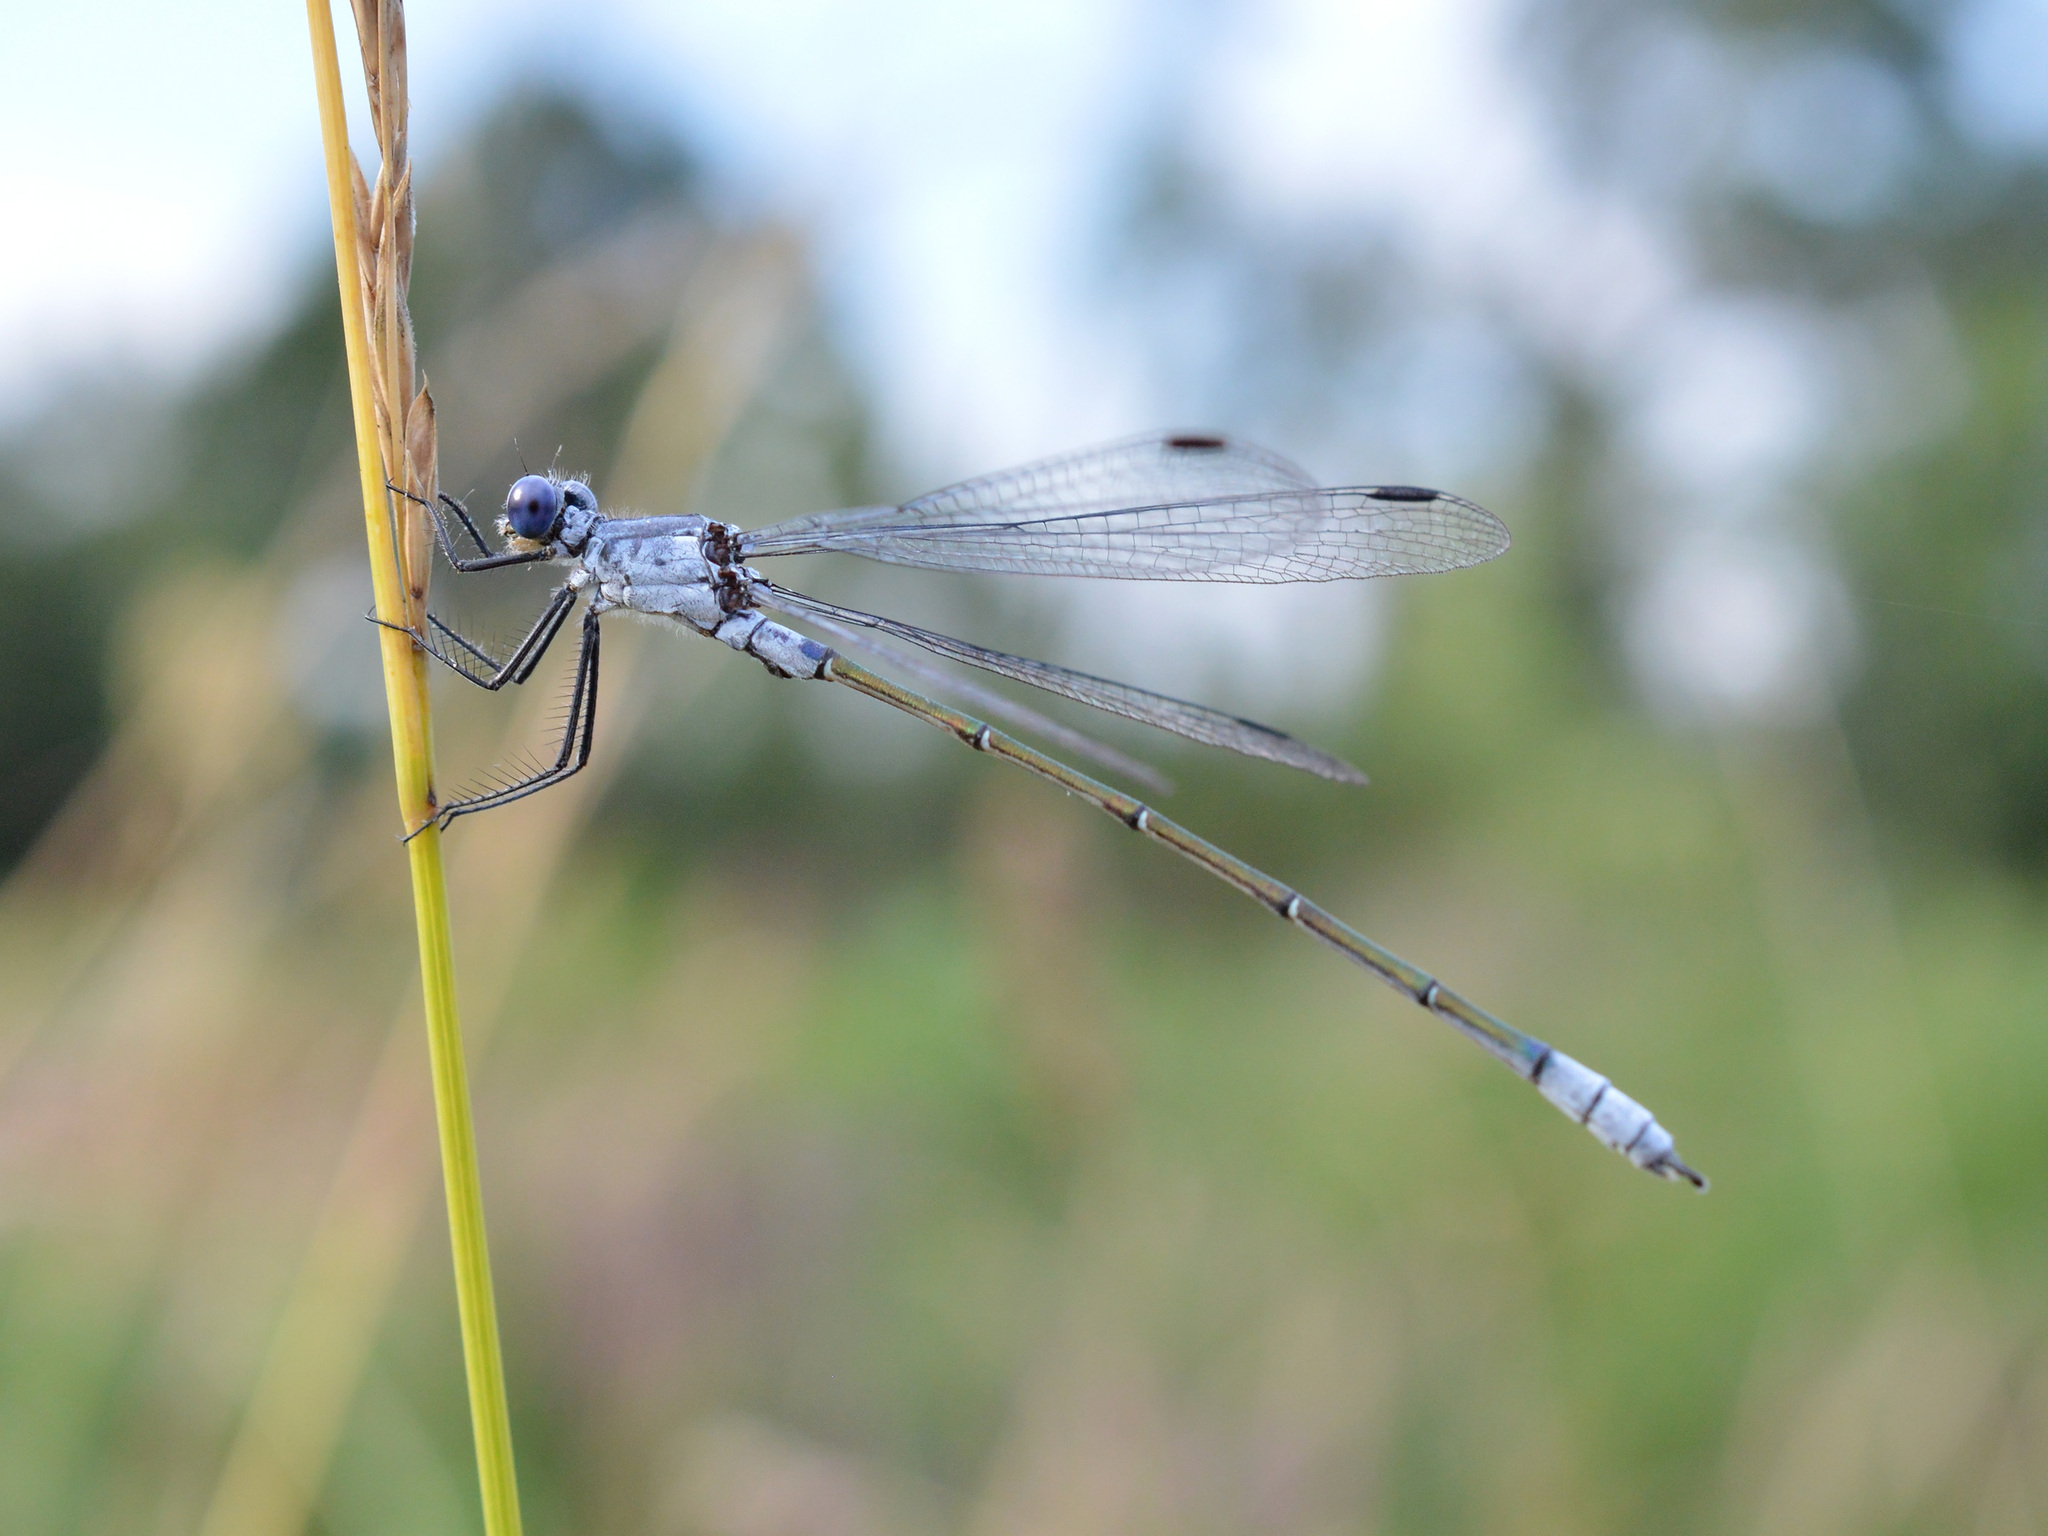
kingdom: Animalia
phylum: Arthropoda
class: Insecta
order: Odonata
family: Lestidae
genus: Lestes
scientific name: Lestes macrostigma
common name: Dark spreadwing
